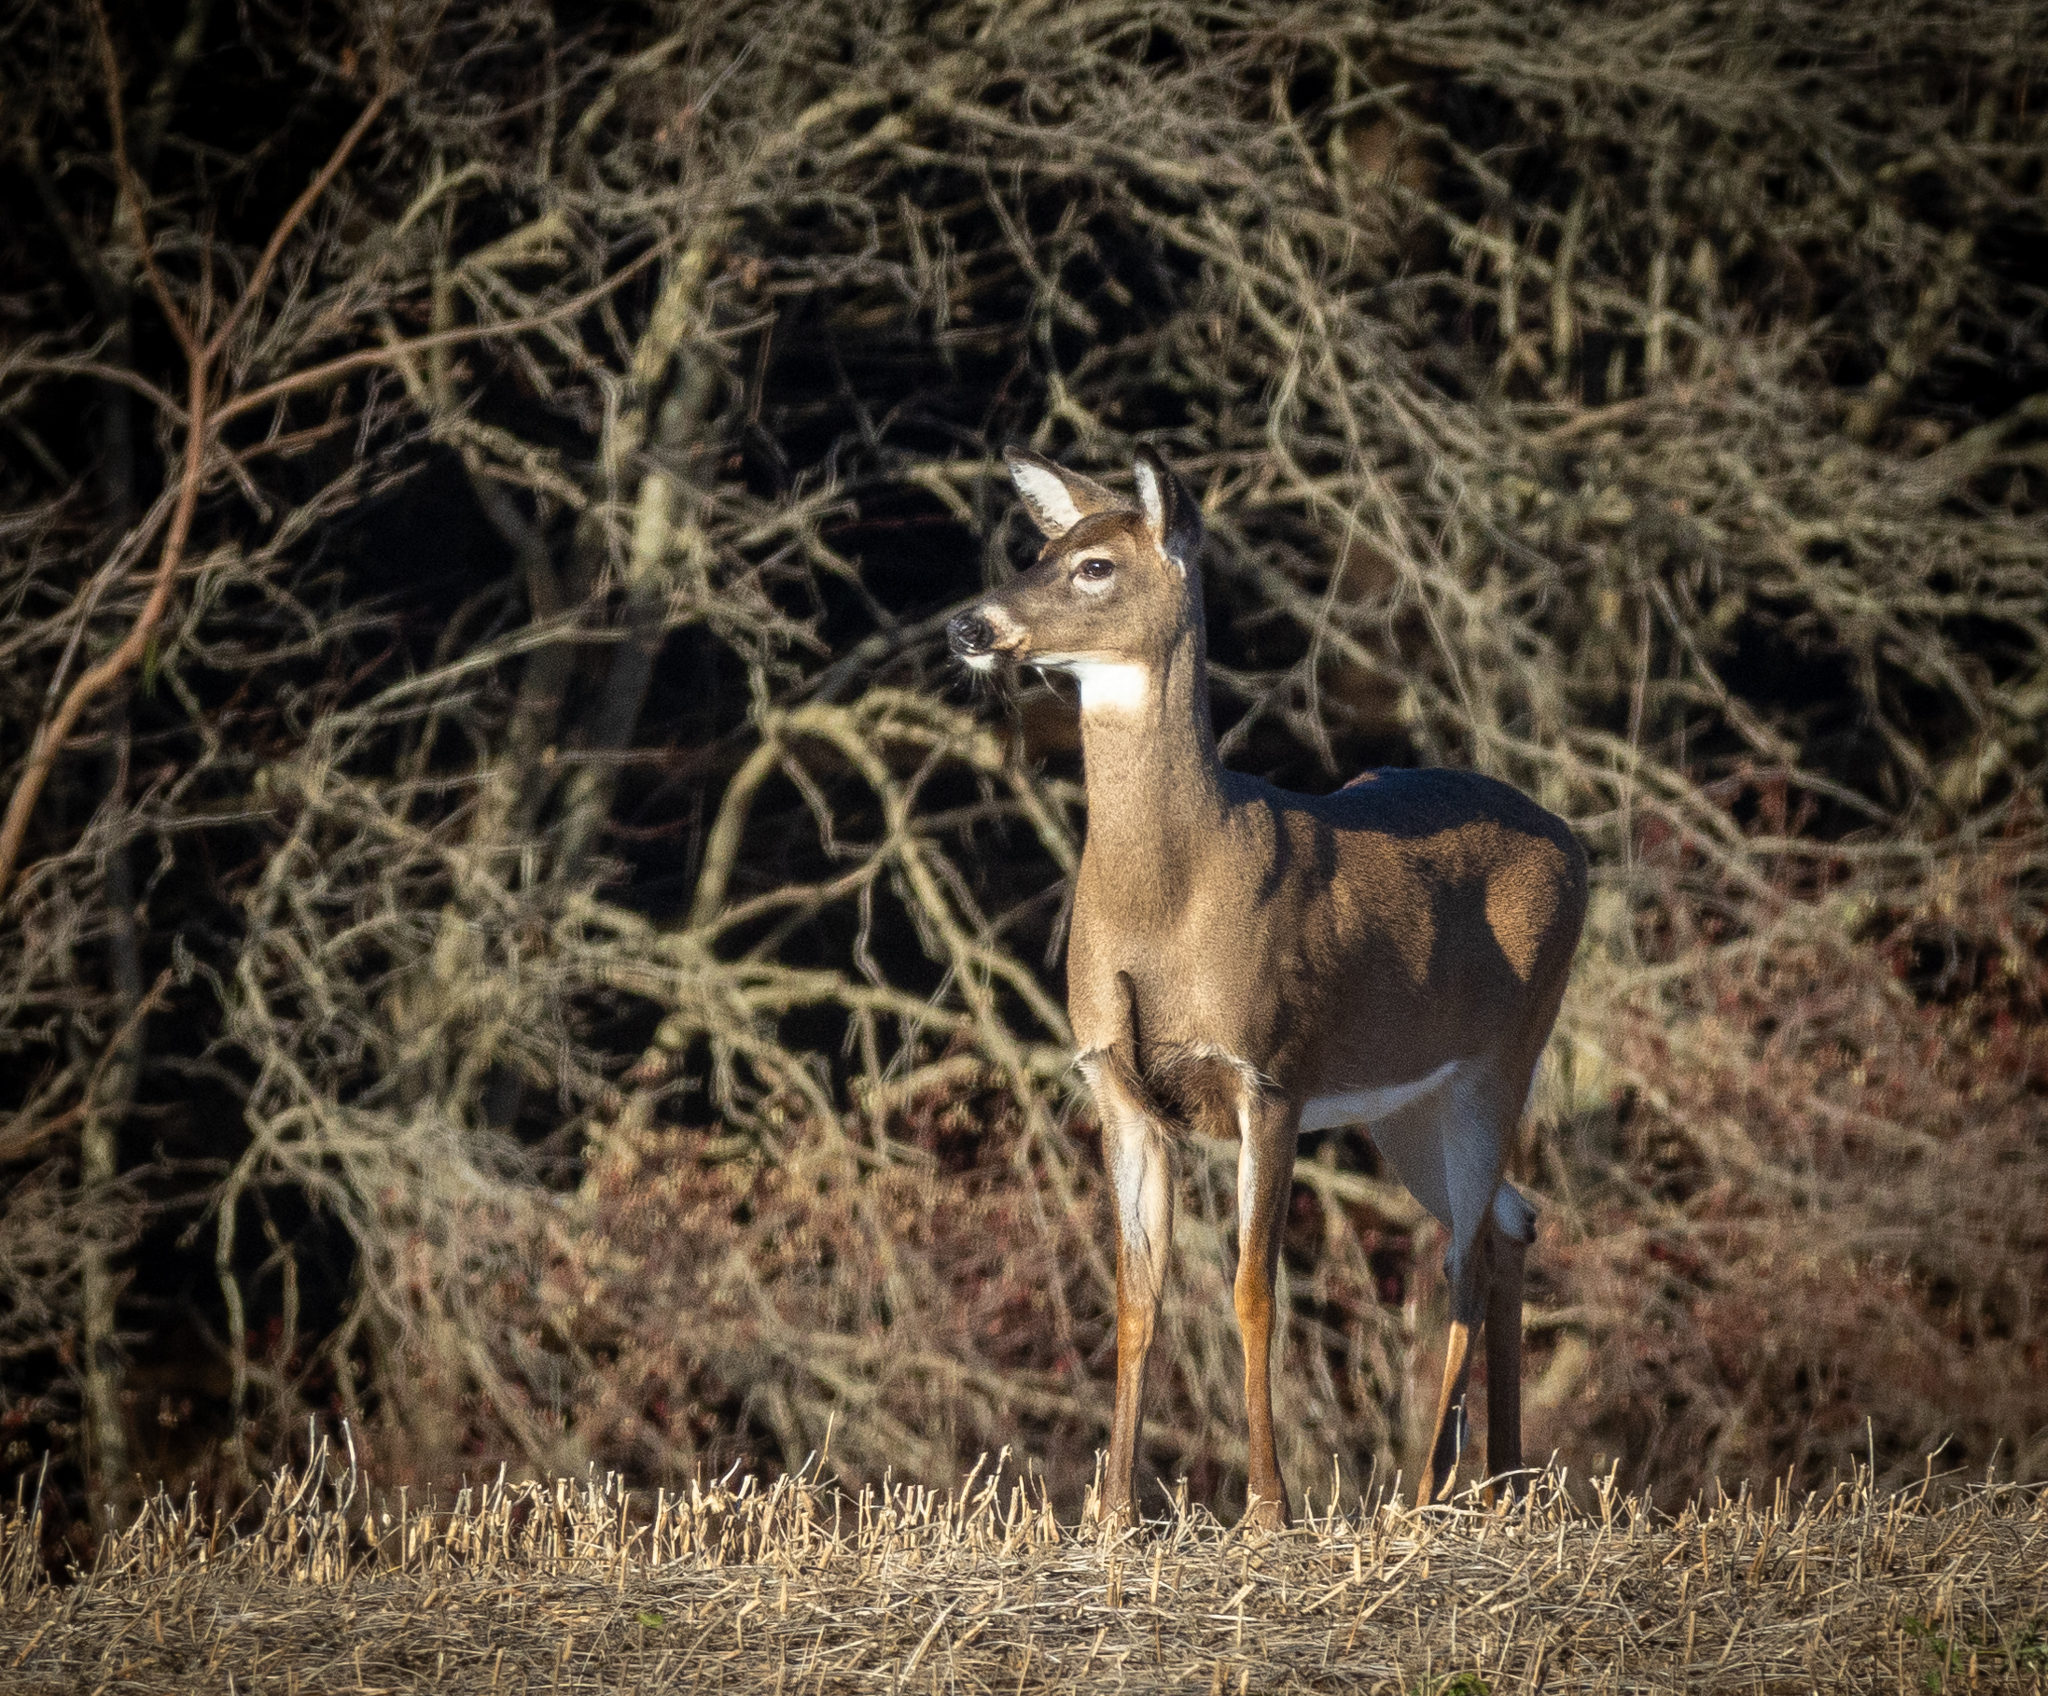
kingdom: Animalia
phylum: Chordata
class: Mammalia
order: Artiodactyla
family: Cervidae
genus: Odocoileus
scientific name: Odocoileus virginianus
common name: White-tailed deer
